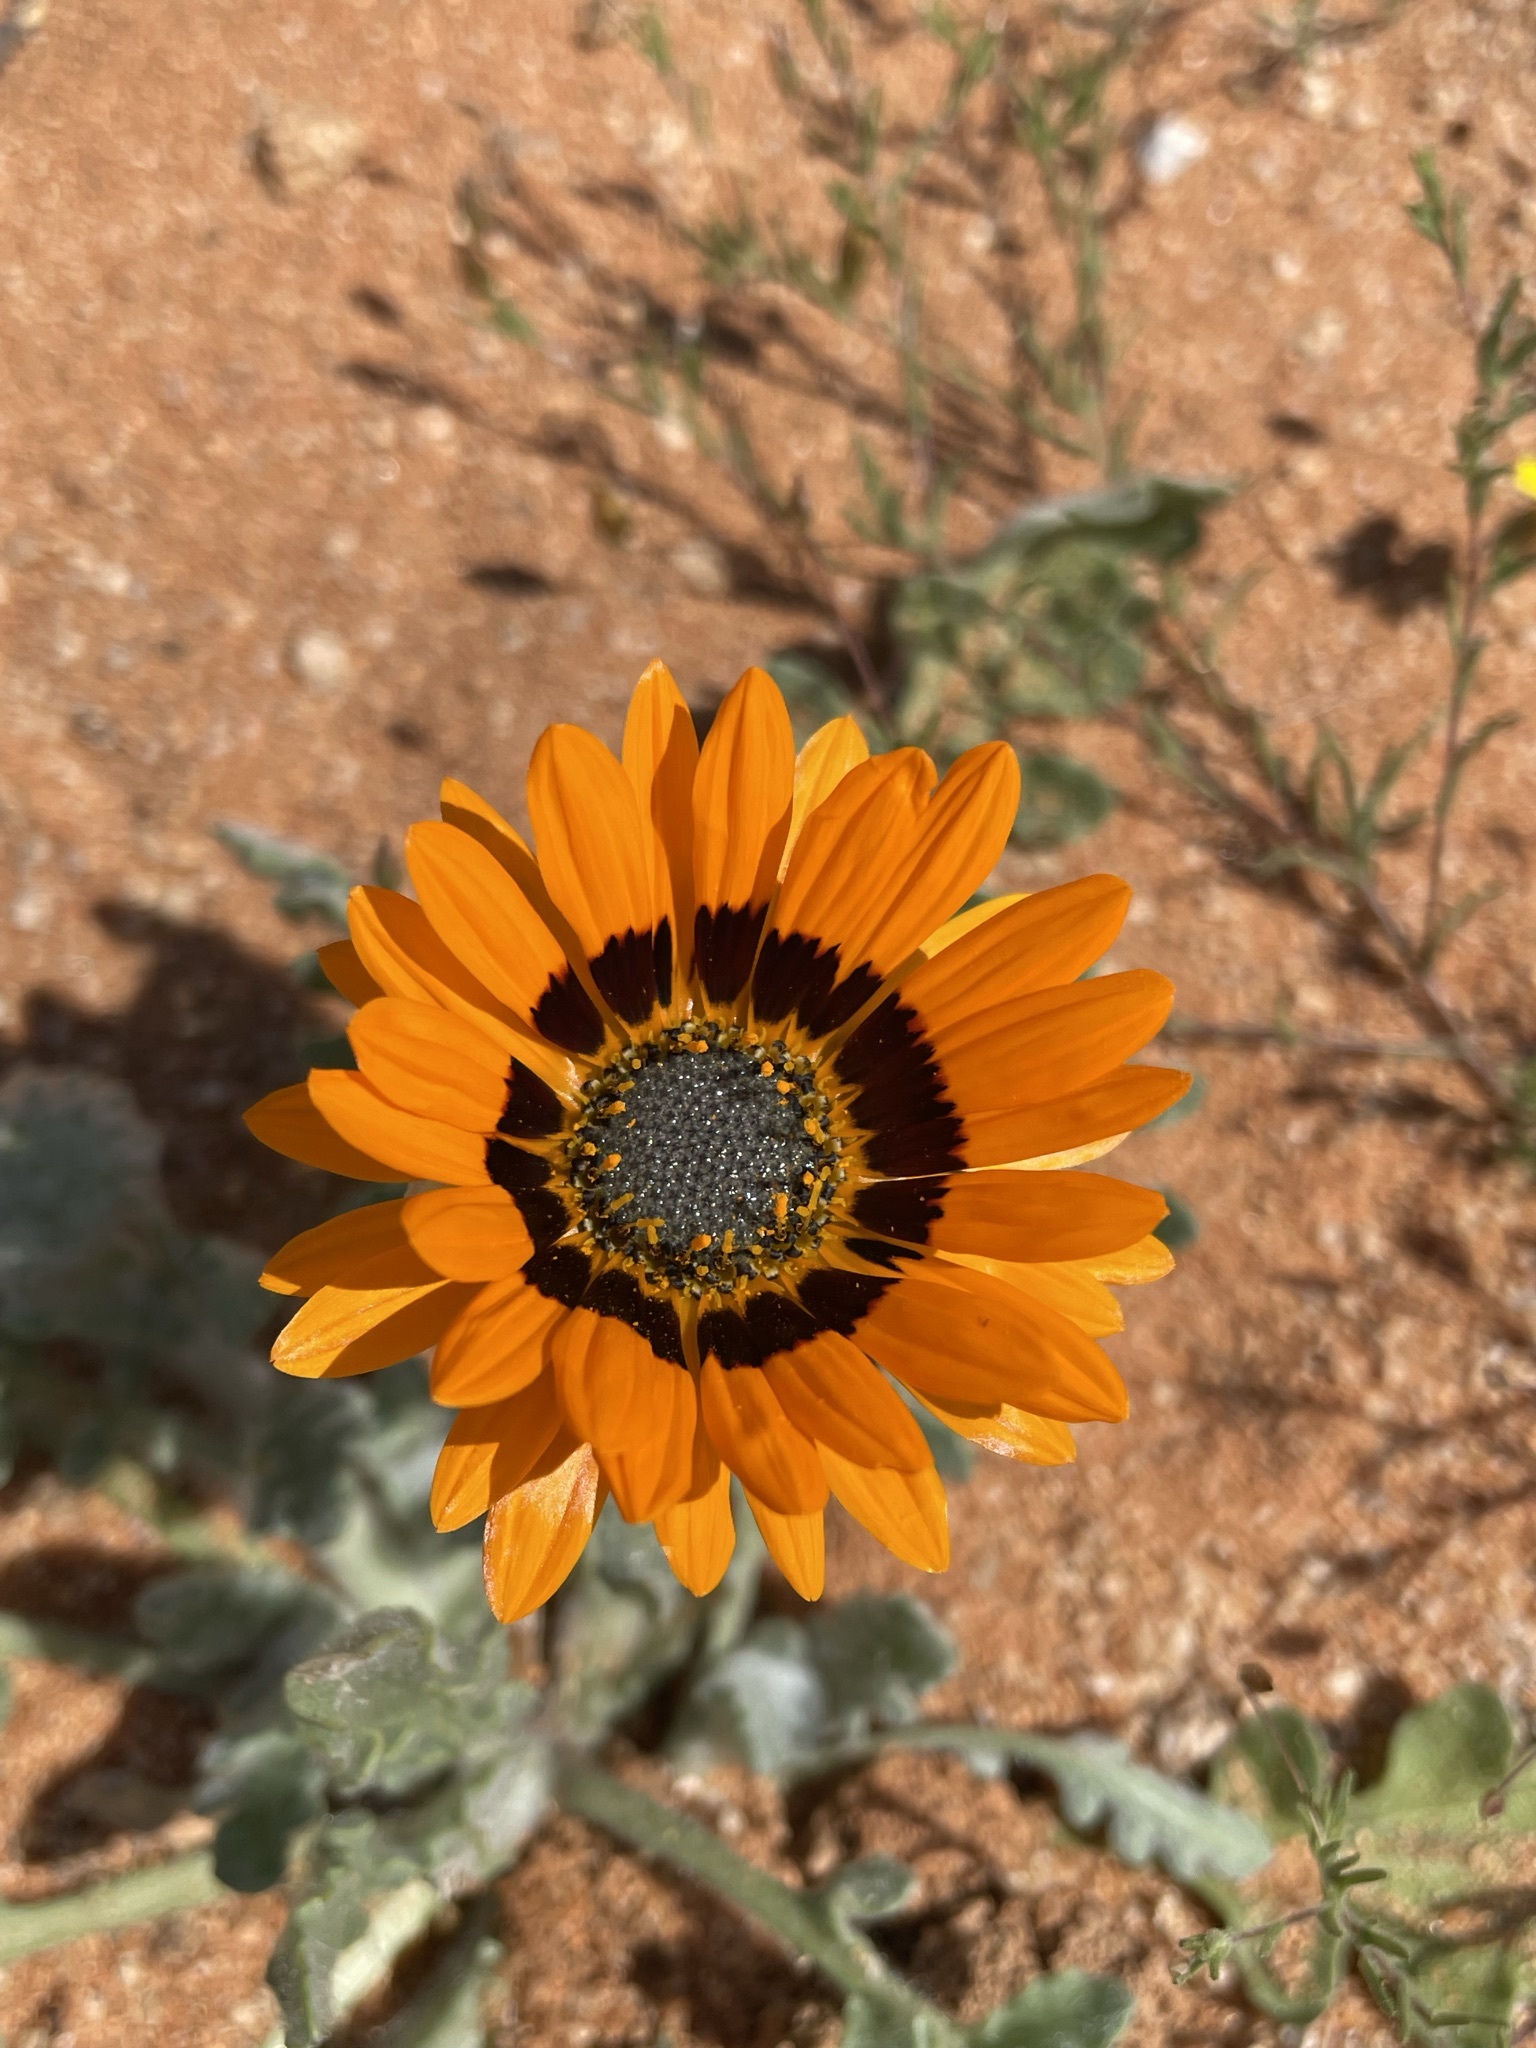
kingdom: Plantae
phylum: Tracheophyta
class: Magnoliopsida
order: Asterales
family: Asteraceae
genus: Arctotis
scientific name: Arctotis fastuosa
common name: Monarch of the veld
